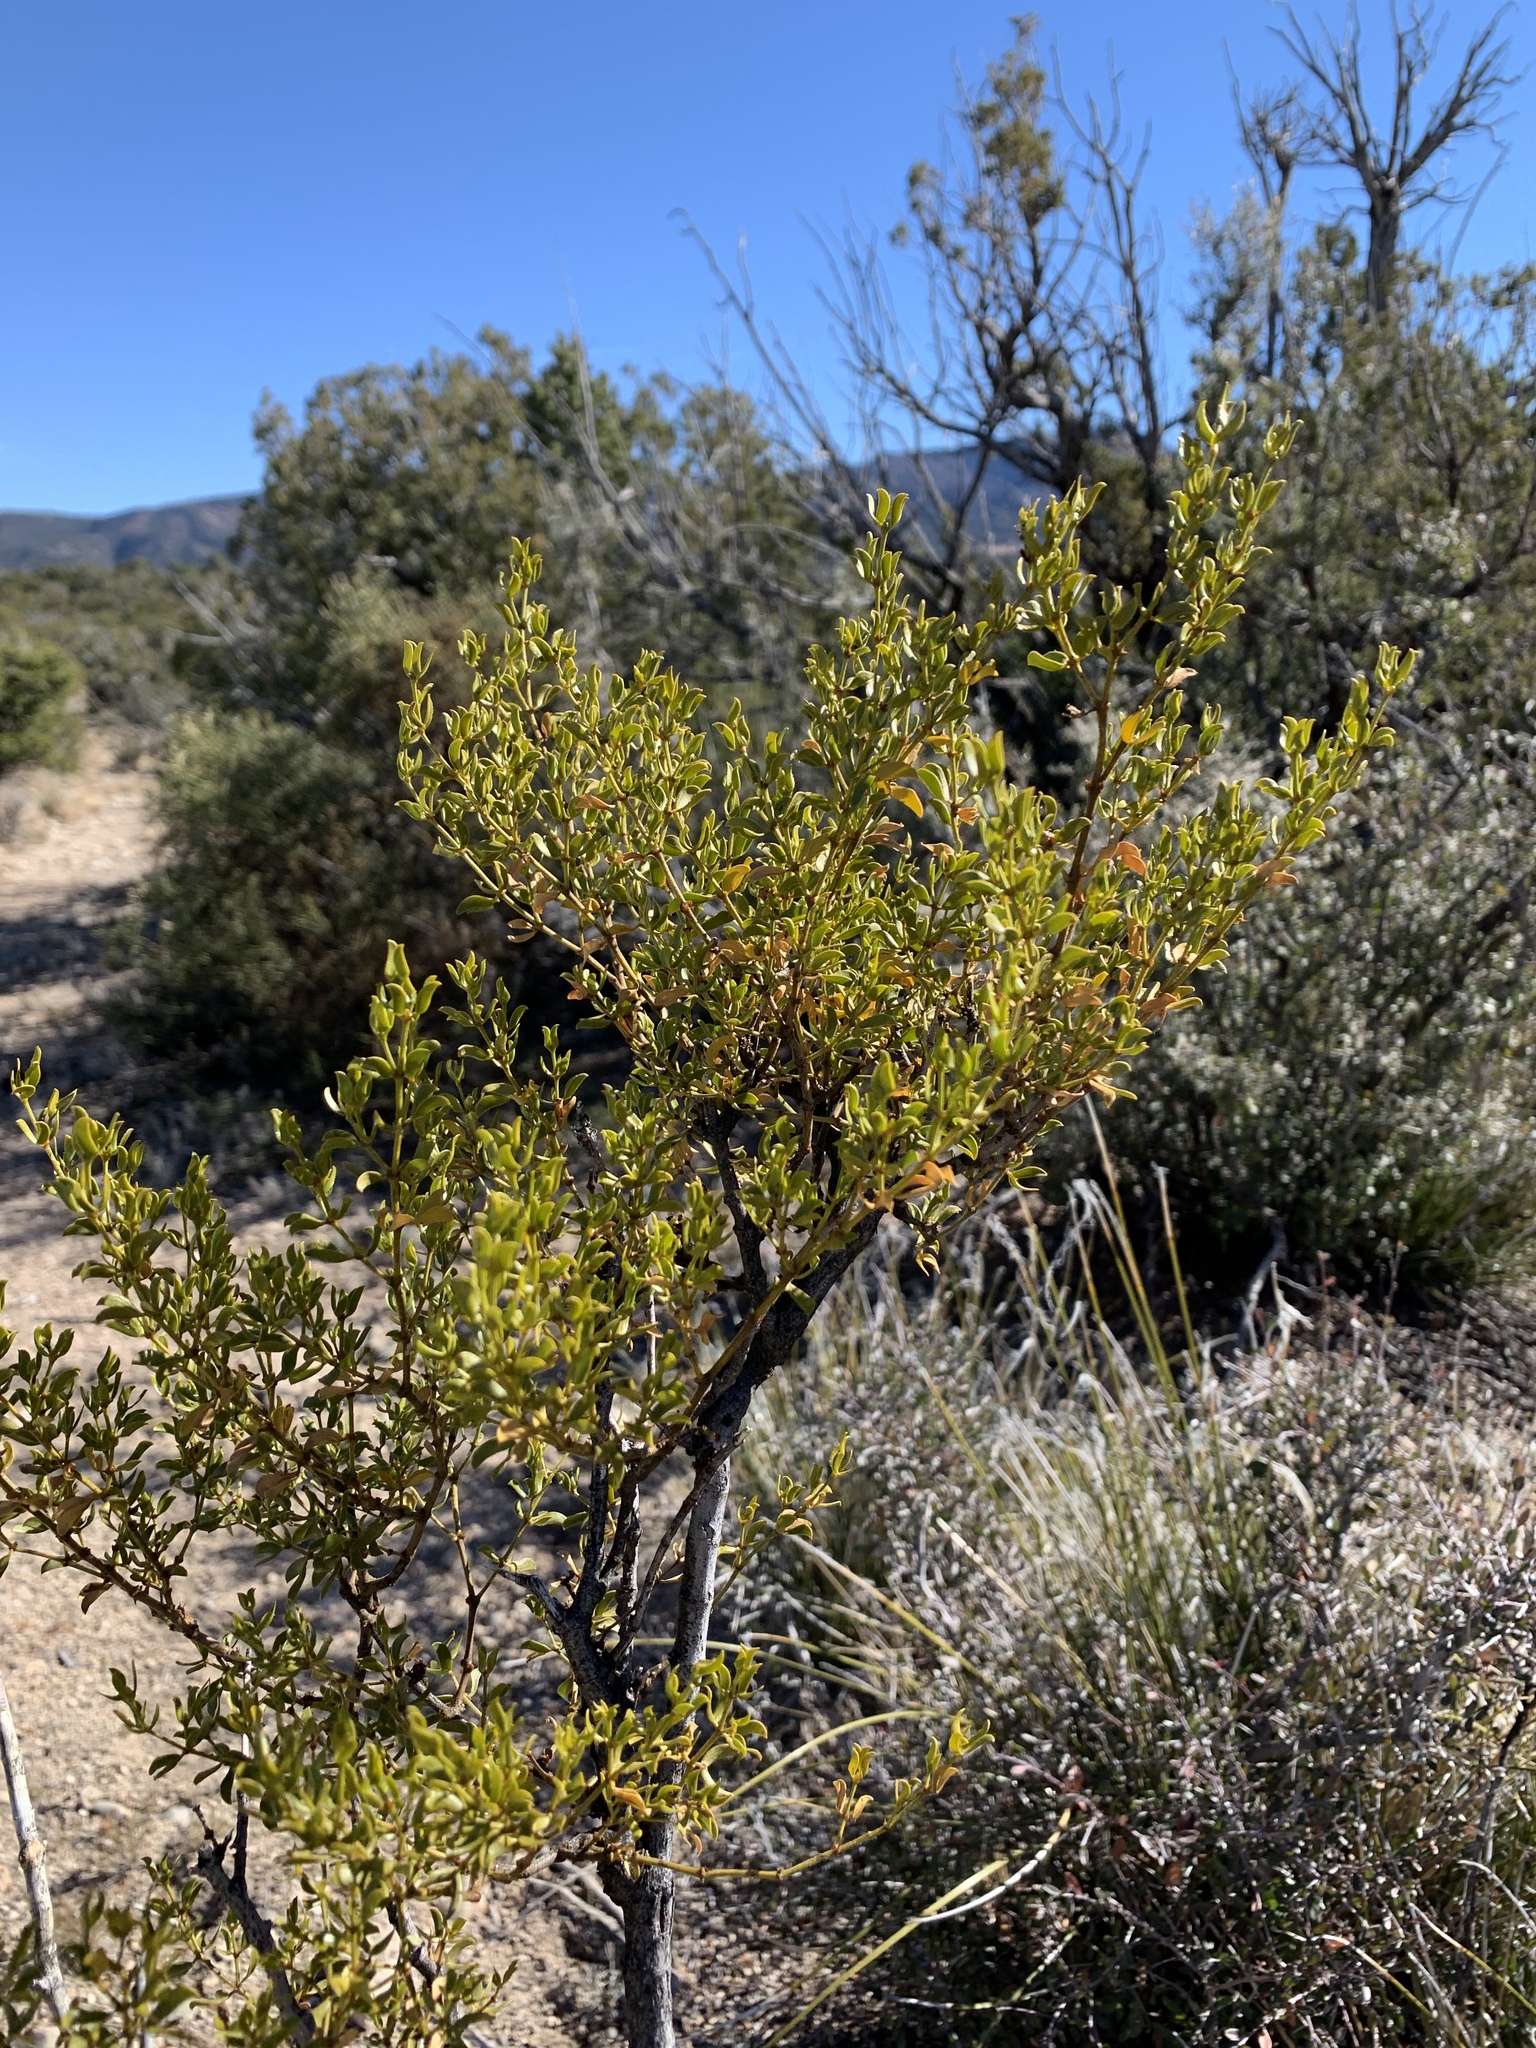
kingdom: Plantae
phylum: Tracheophyta
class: Magnoliopsida
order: Zygophyllales
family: Zygophyllaceae
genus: Larrea
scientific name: Larrea tridentata
